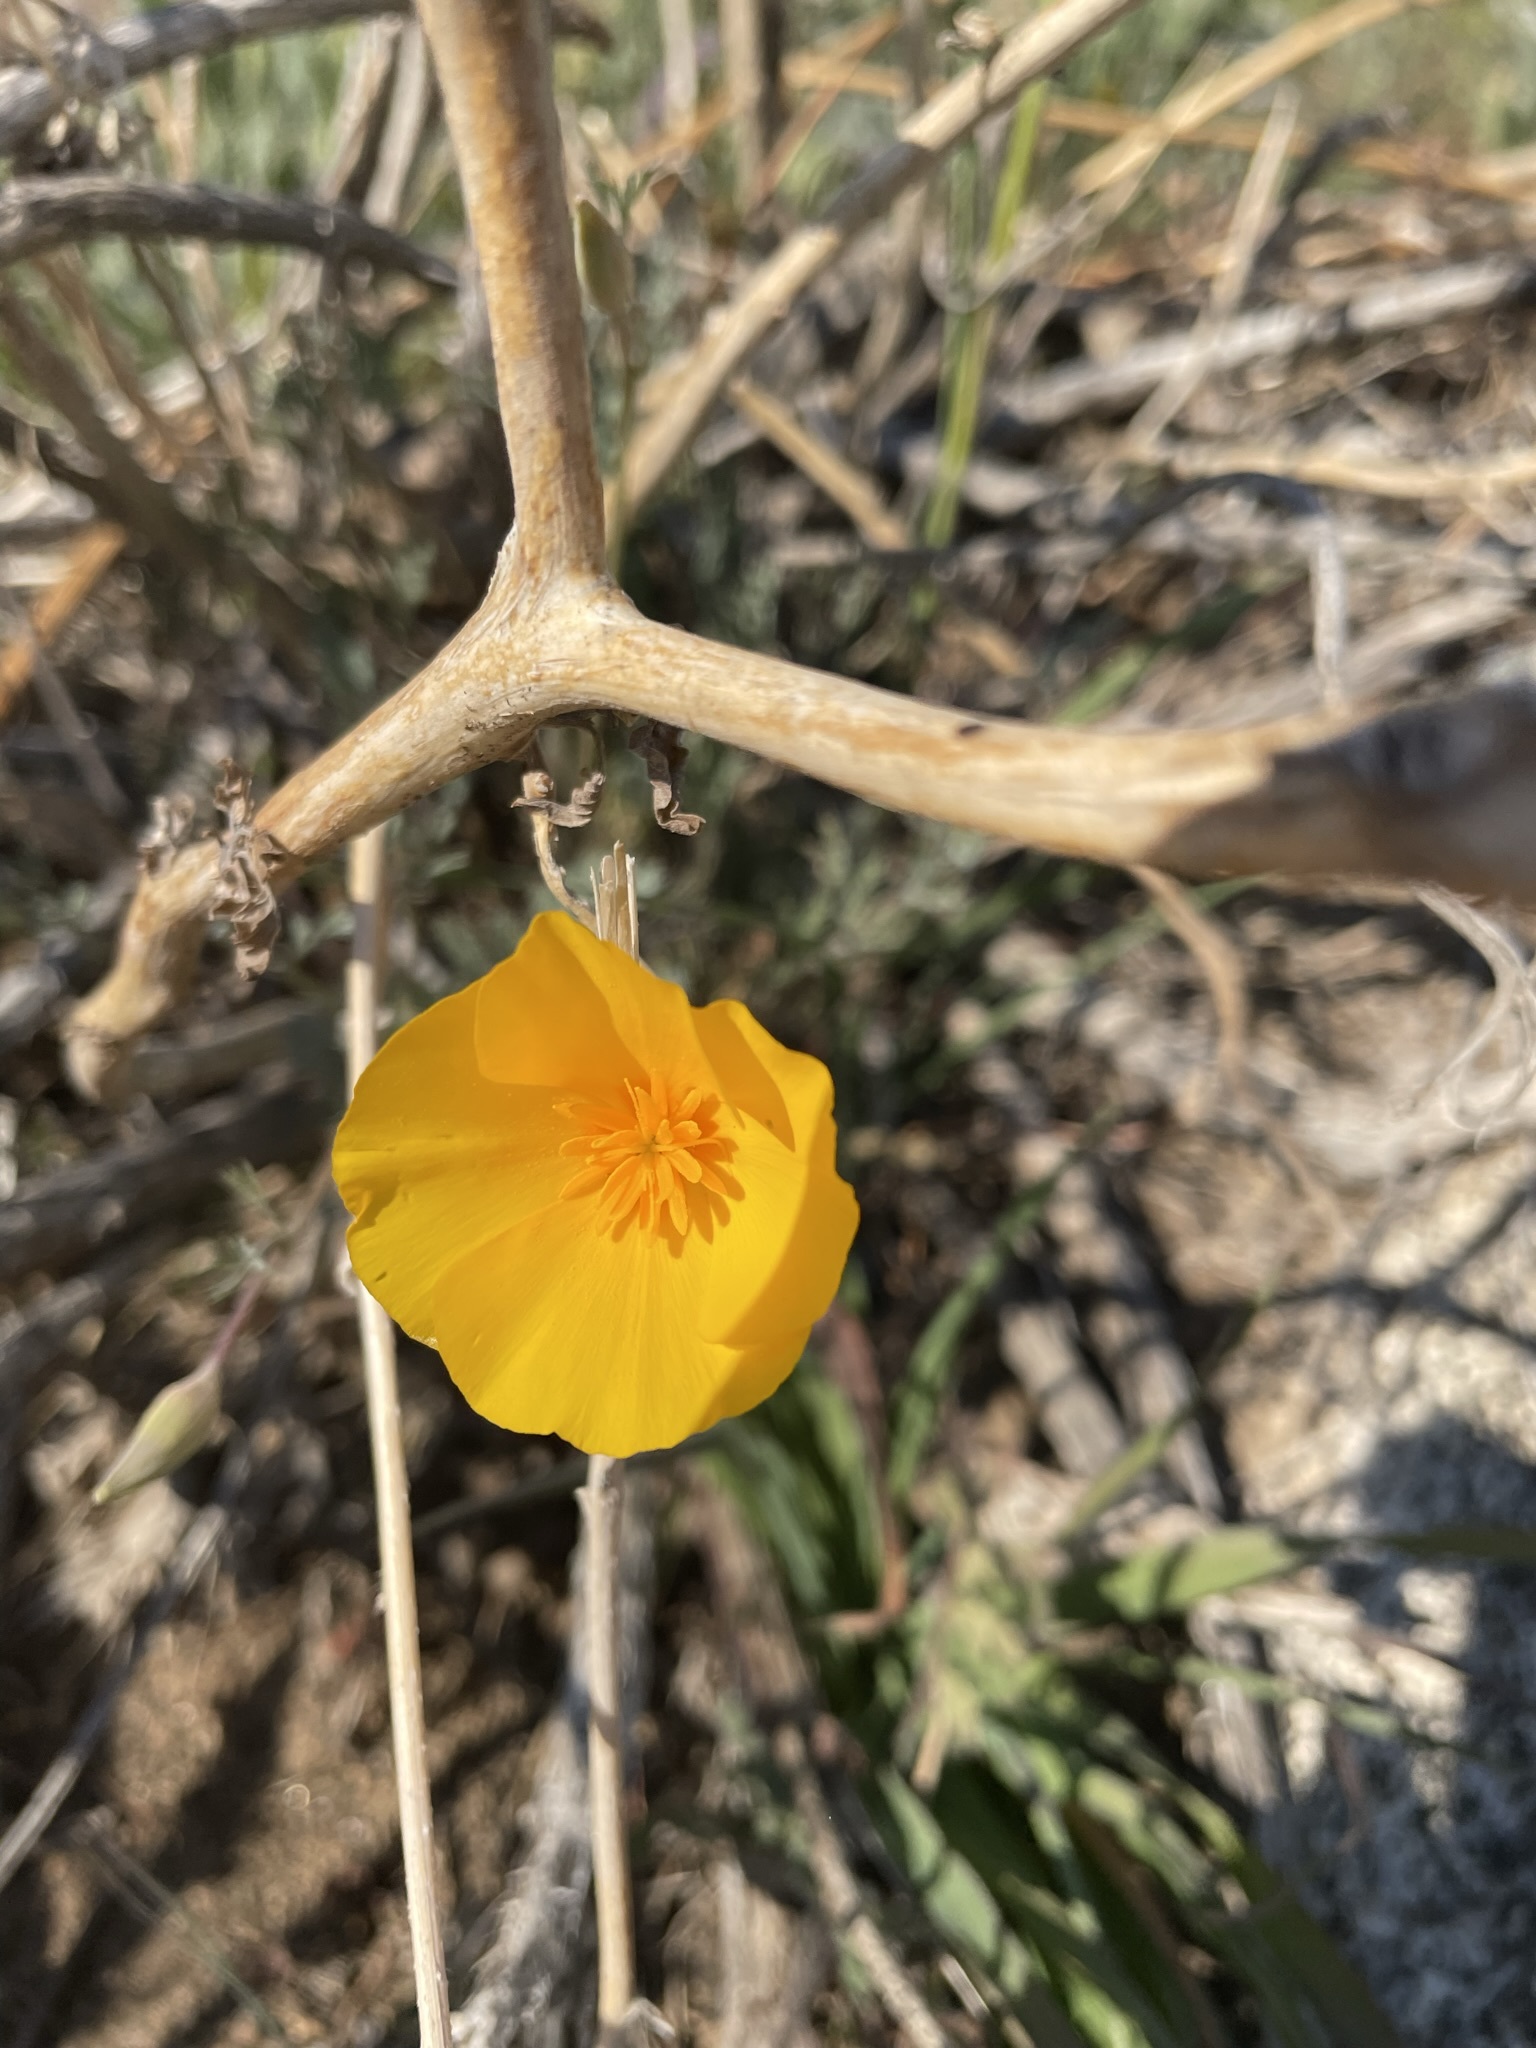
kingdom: Plantae
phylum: Tracheophyta
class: Magnoliopsida
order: Ranunculales
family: Papaveraceae
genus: Eschscholzia
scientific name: Eschscholzia caespitosa
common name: Tufted california-poppy
